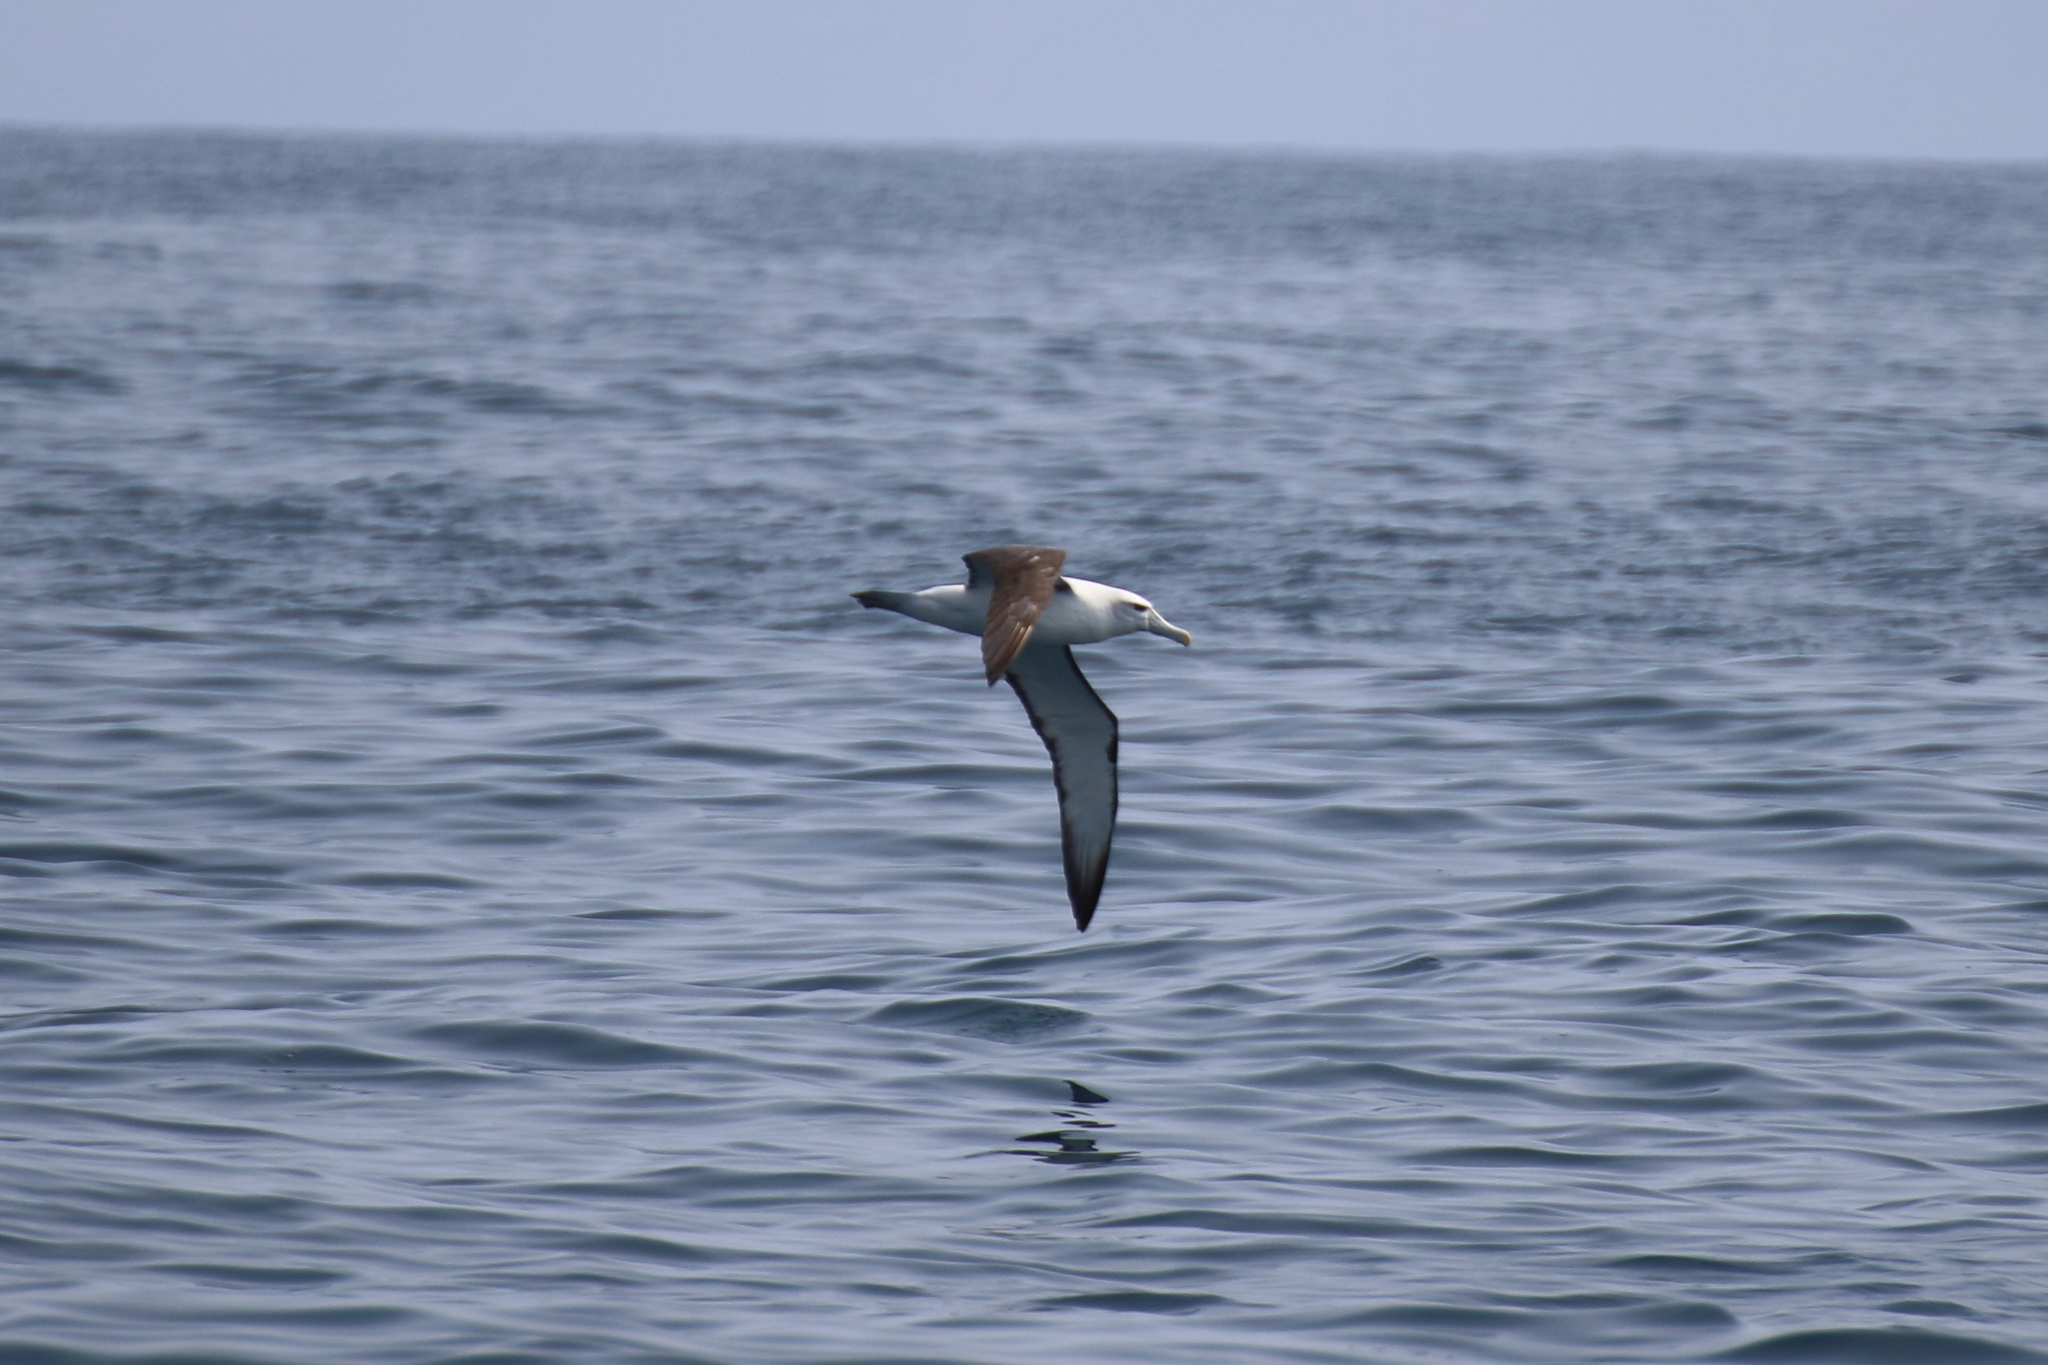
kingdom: Animalia
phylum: Chordata
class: Aves
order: Procellariiformes
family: Diomedeidae
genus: Thalassarche
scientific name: Thalassarche cauta
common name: Shy albatross
